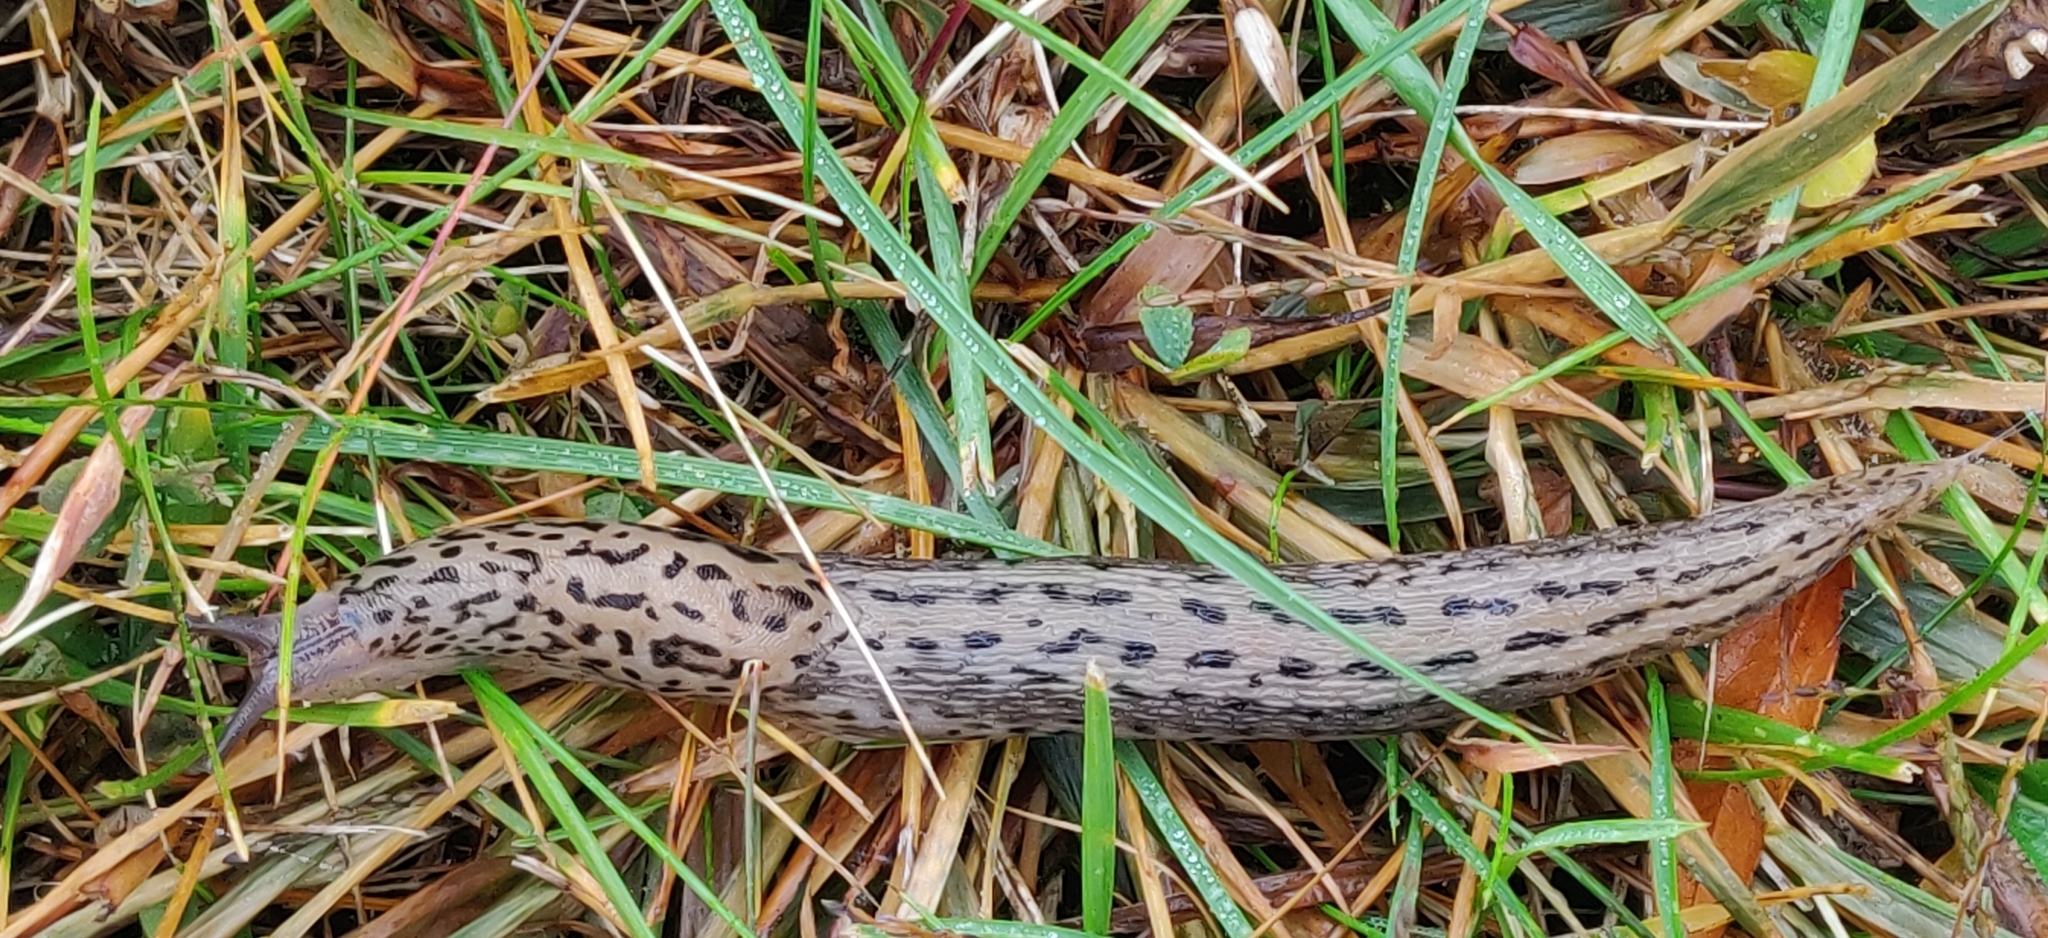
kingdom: Animalia
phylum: Mollusca
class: Gastropoda
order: Stylommatophora
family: Limacidae
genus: Limax
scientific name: Limax maximus
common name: Great grey slug
